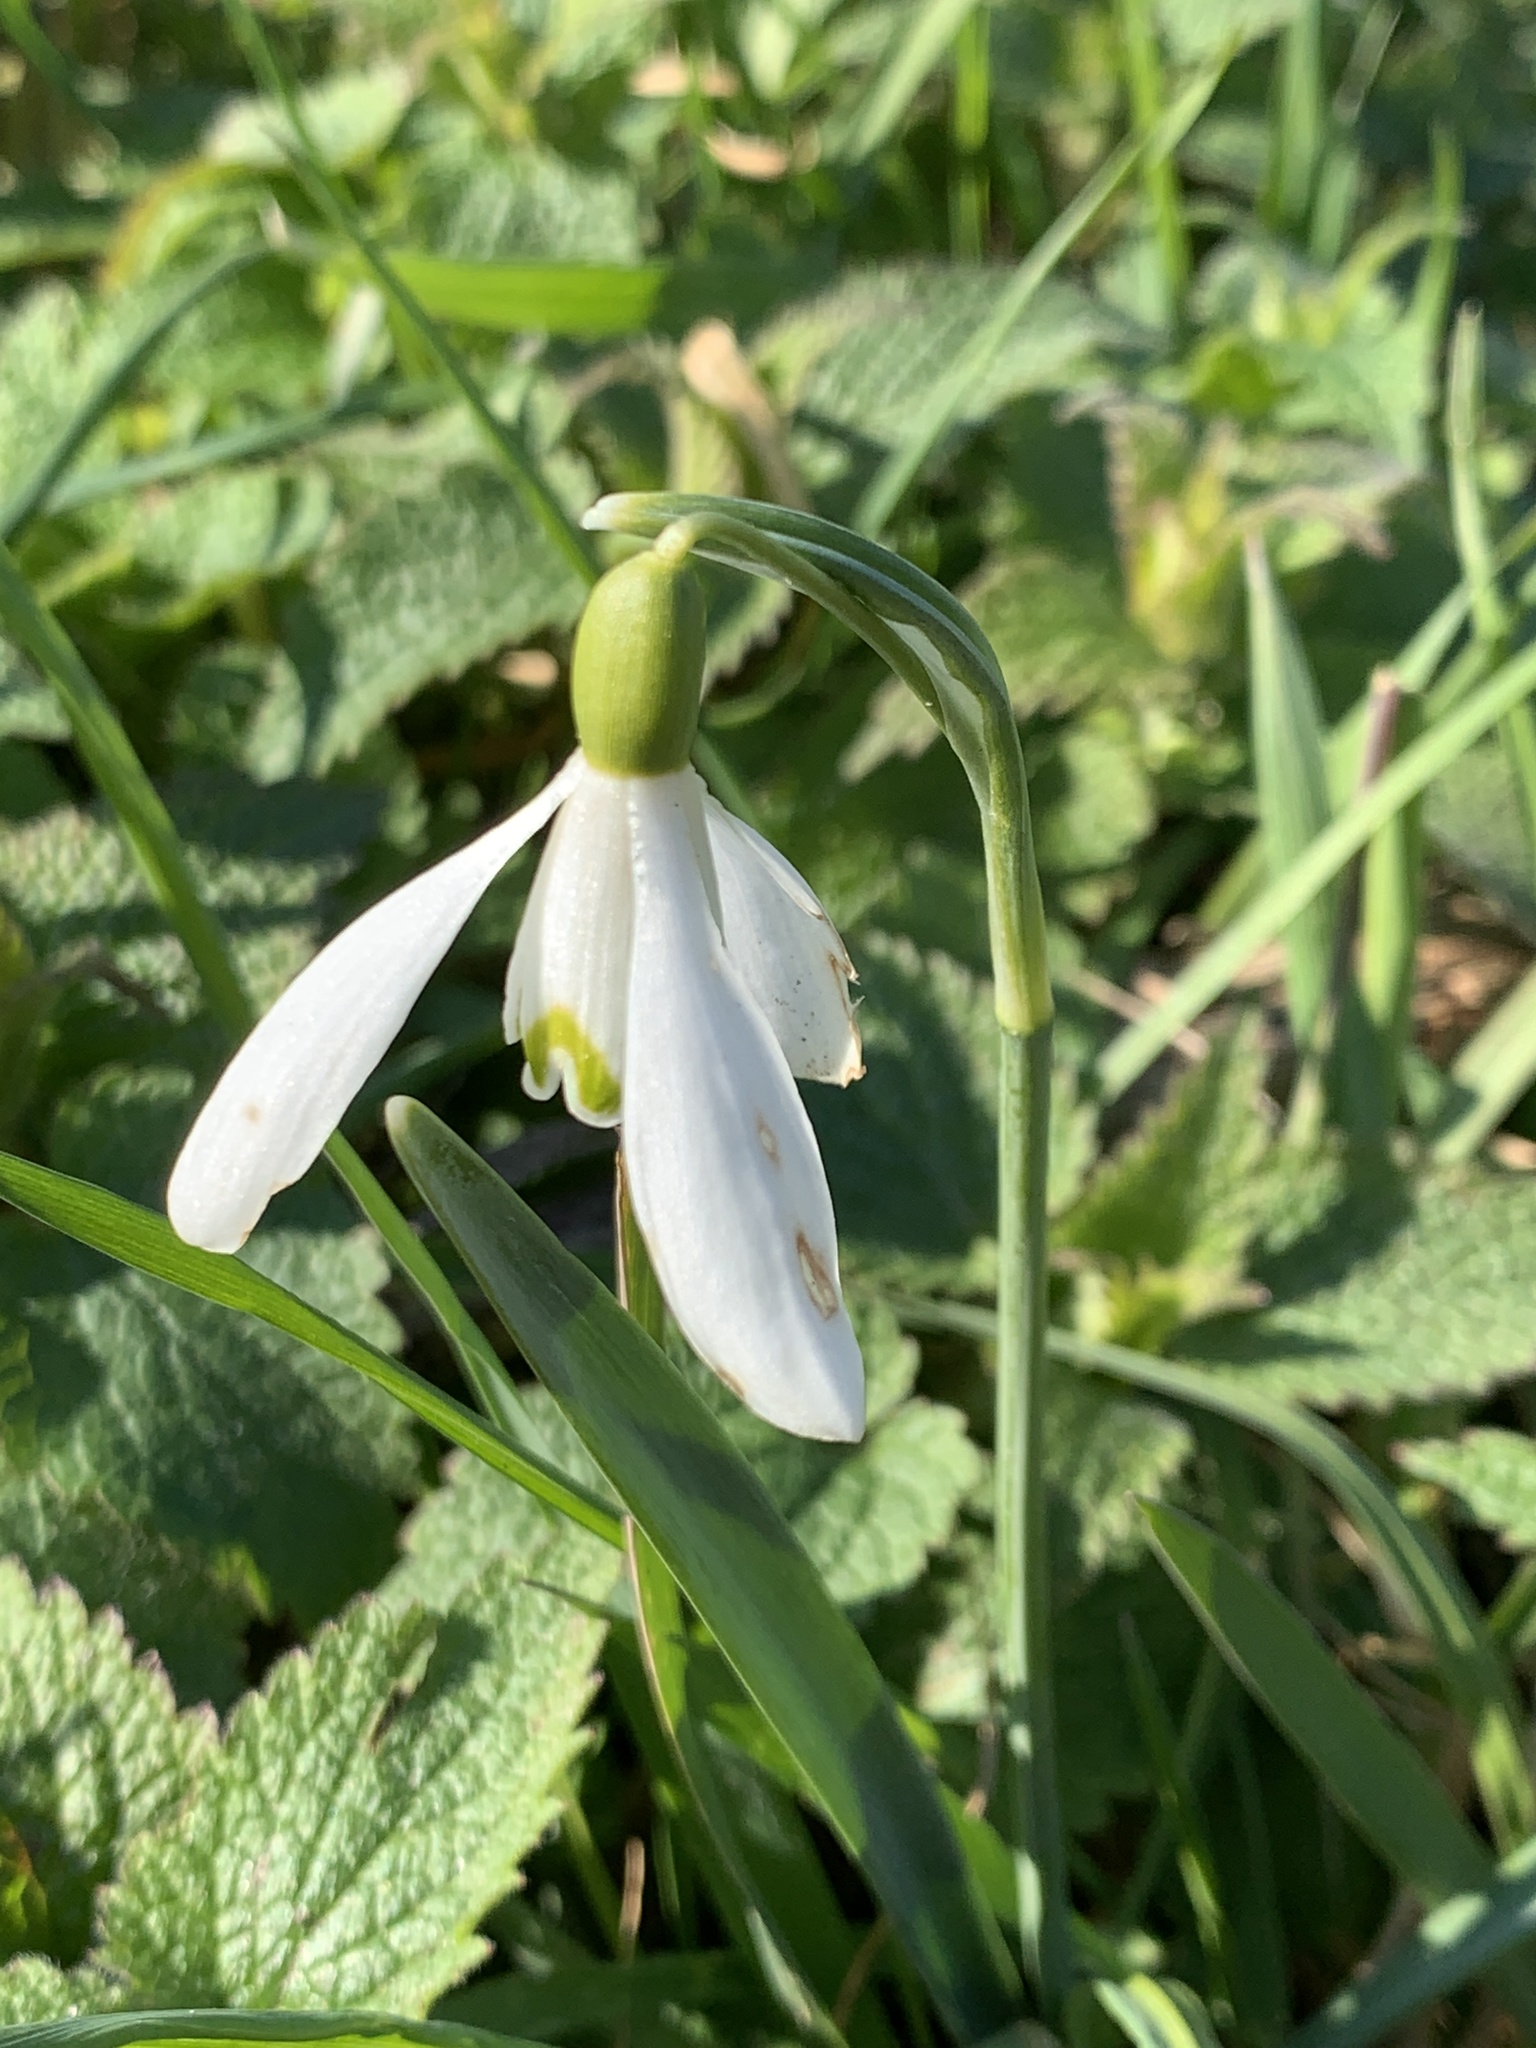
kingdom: Plantae
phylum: Tracheophyta
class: Liliopsida
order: Asparagales
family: Amaryllidaceae
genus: Galanthus
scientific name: Galanthus nivalis
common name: Snowdrop
